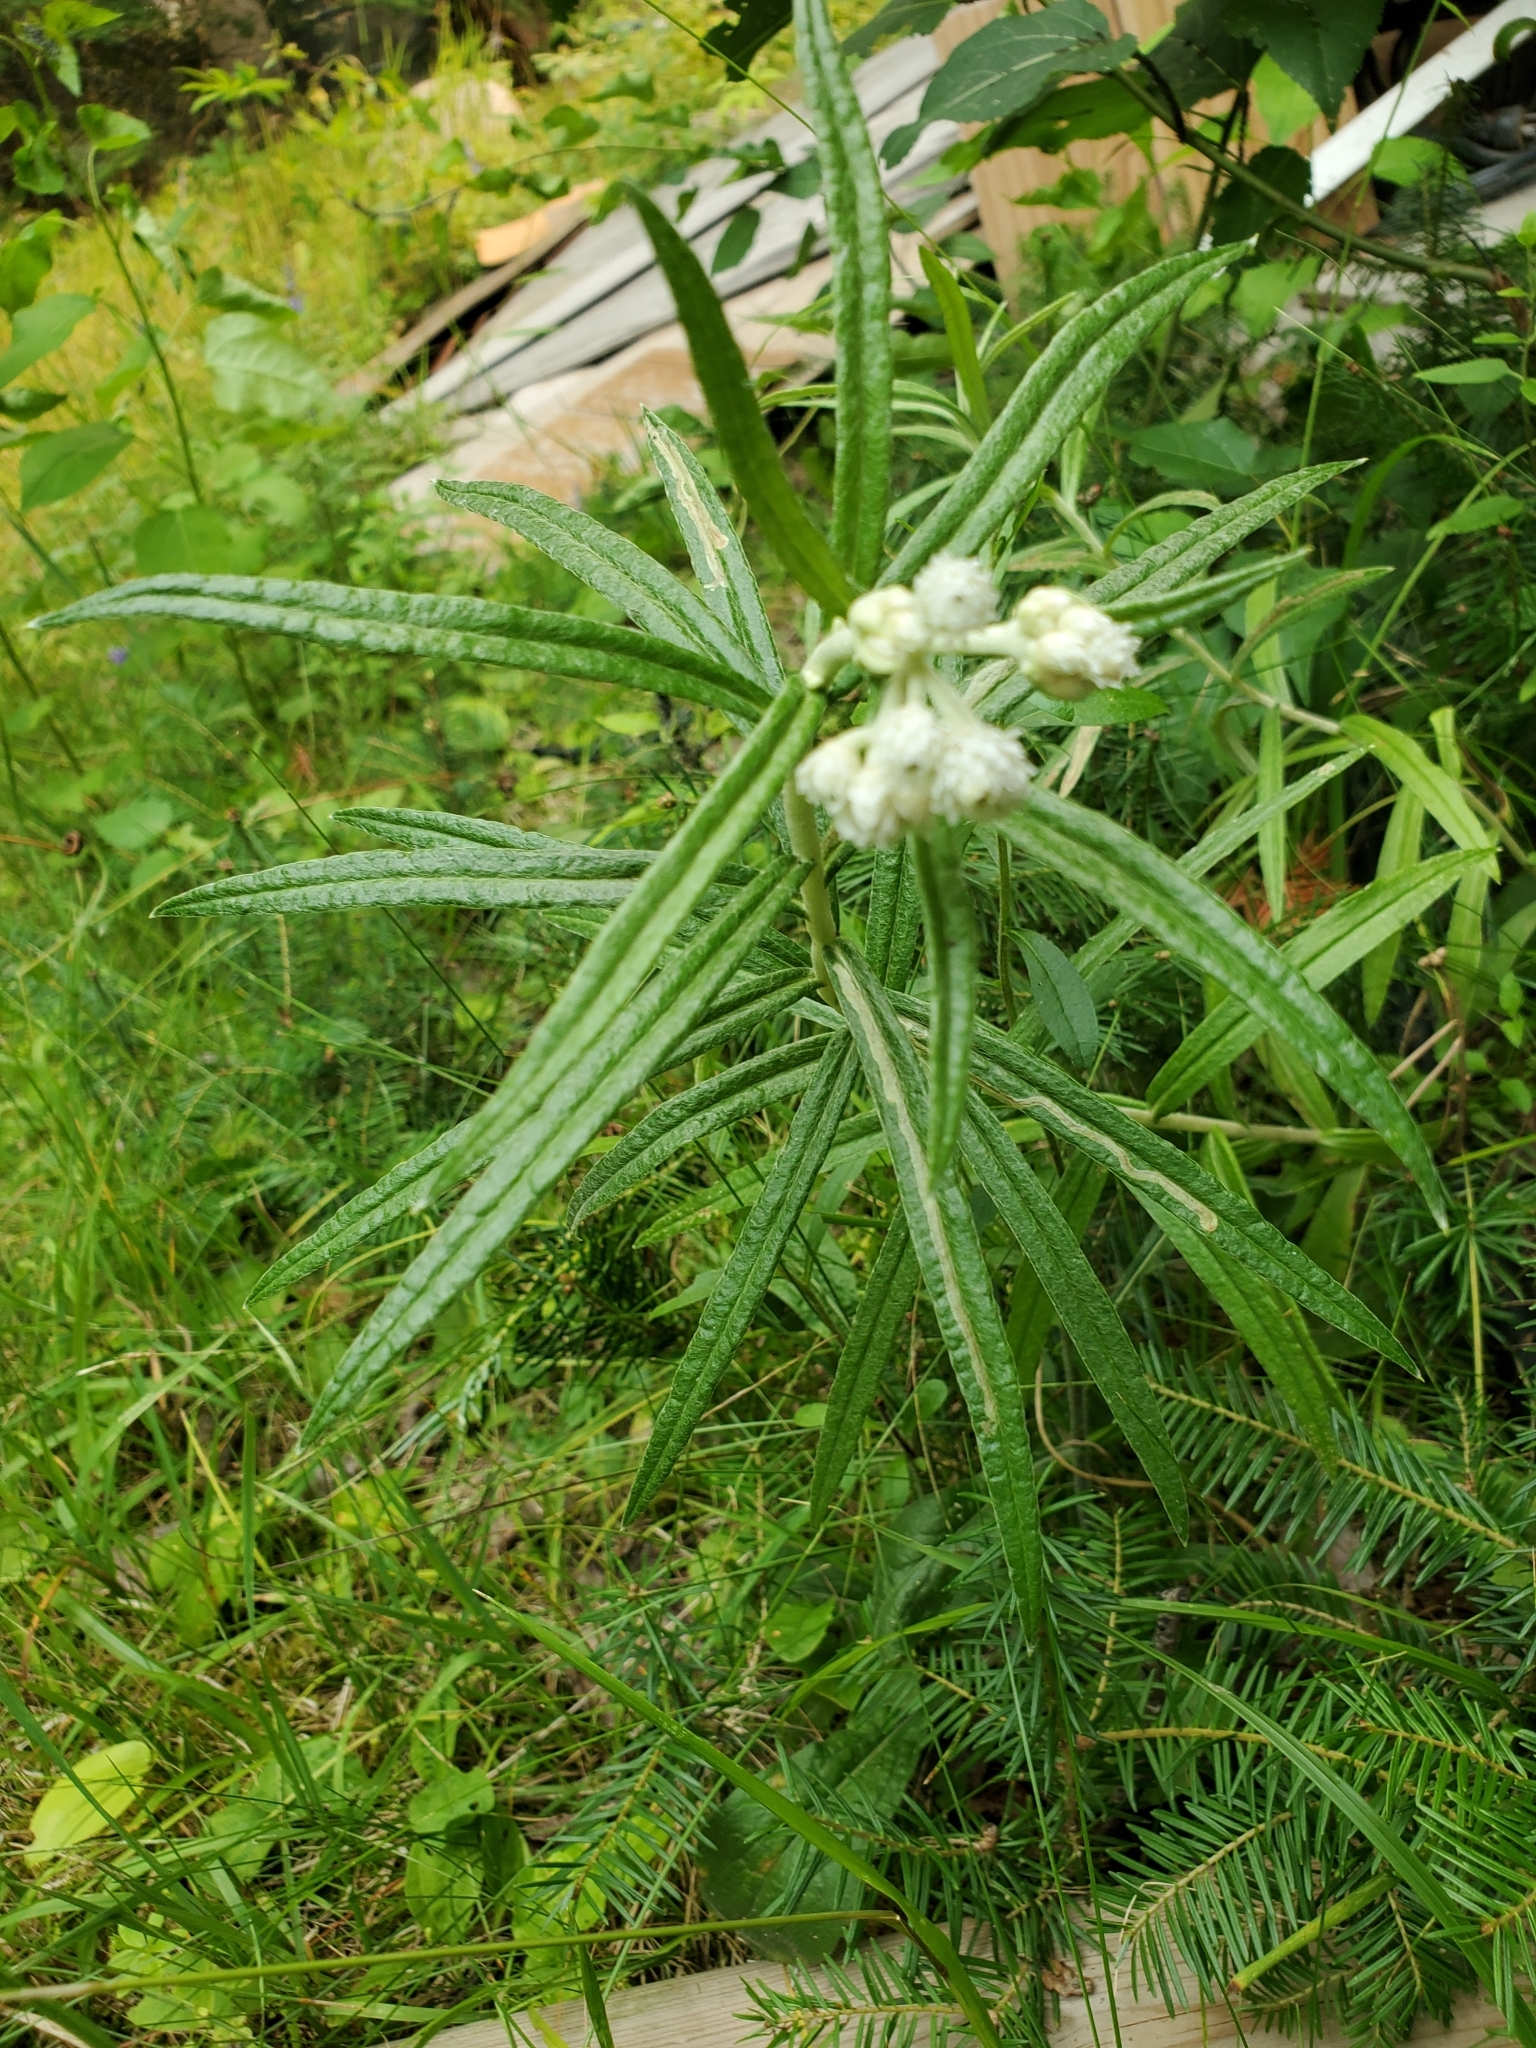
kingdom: Plantae
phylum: Tracheophyta
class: Magnoliopsida
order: Asterales
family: Asteraceae
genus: Anaphalis
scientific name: Anaphalis margaritacea
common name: Pearly everlasting
